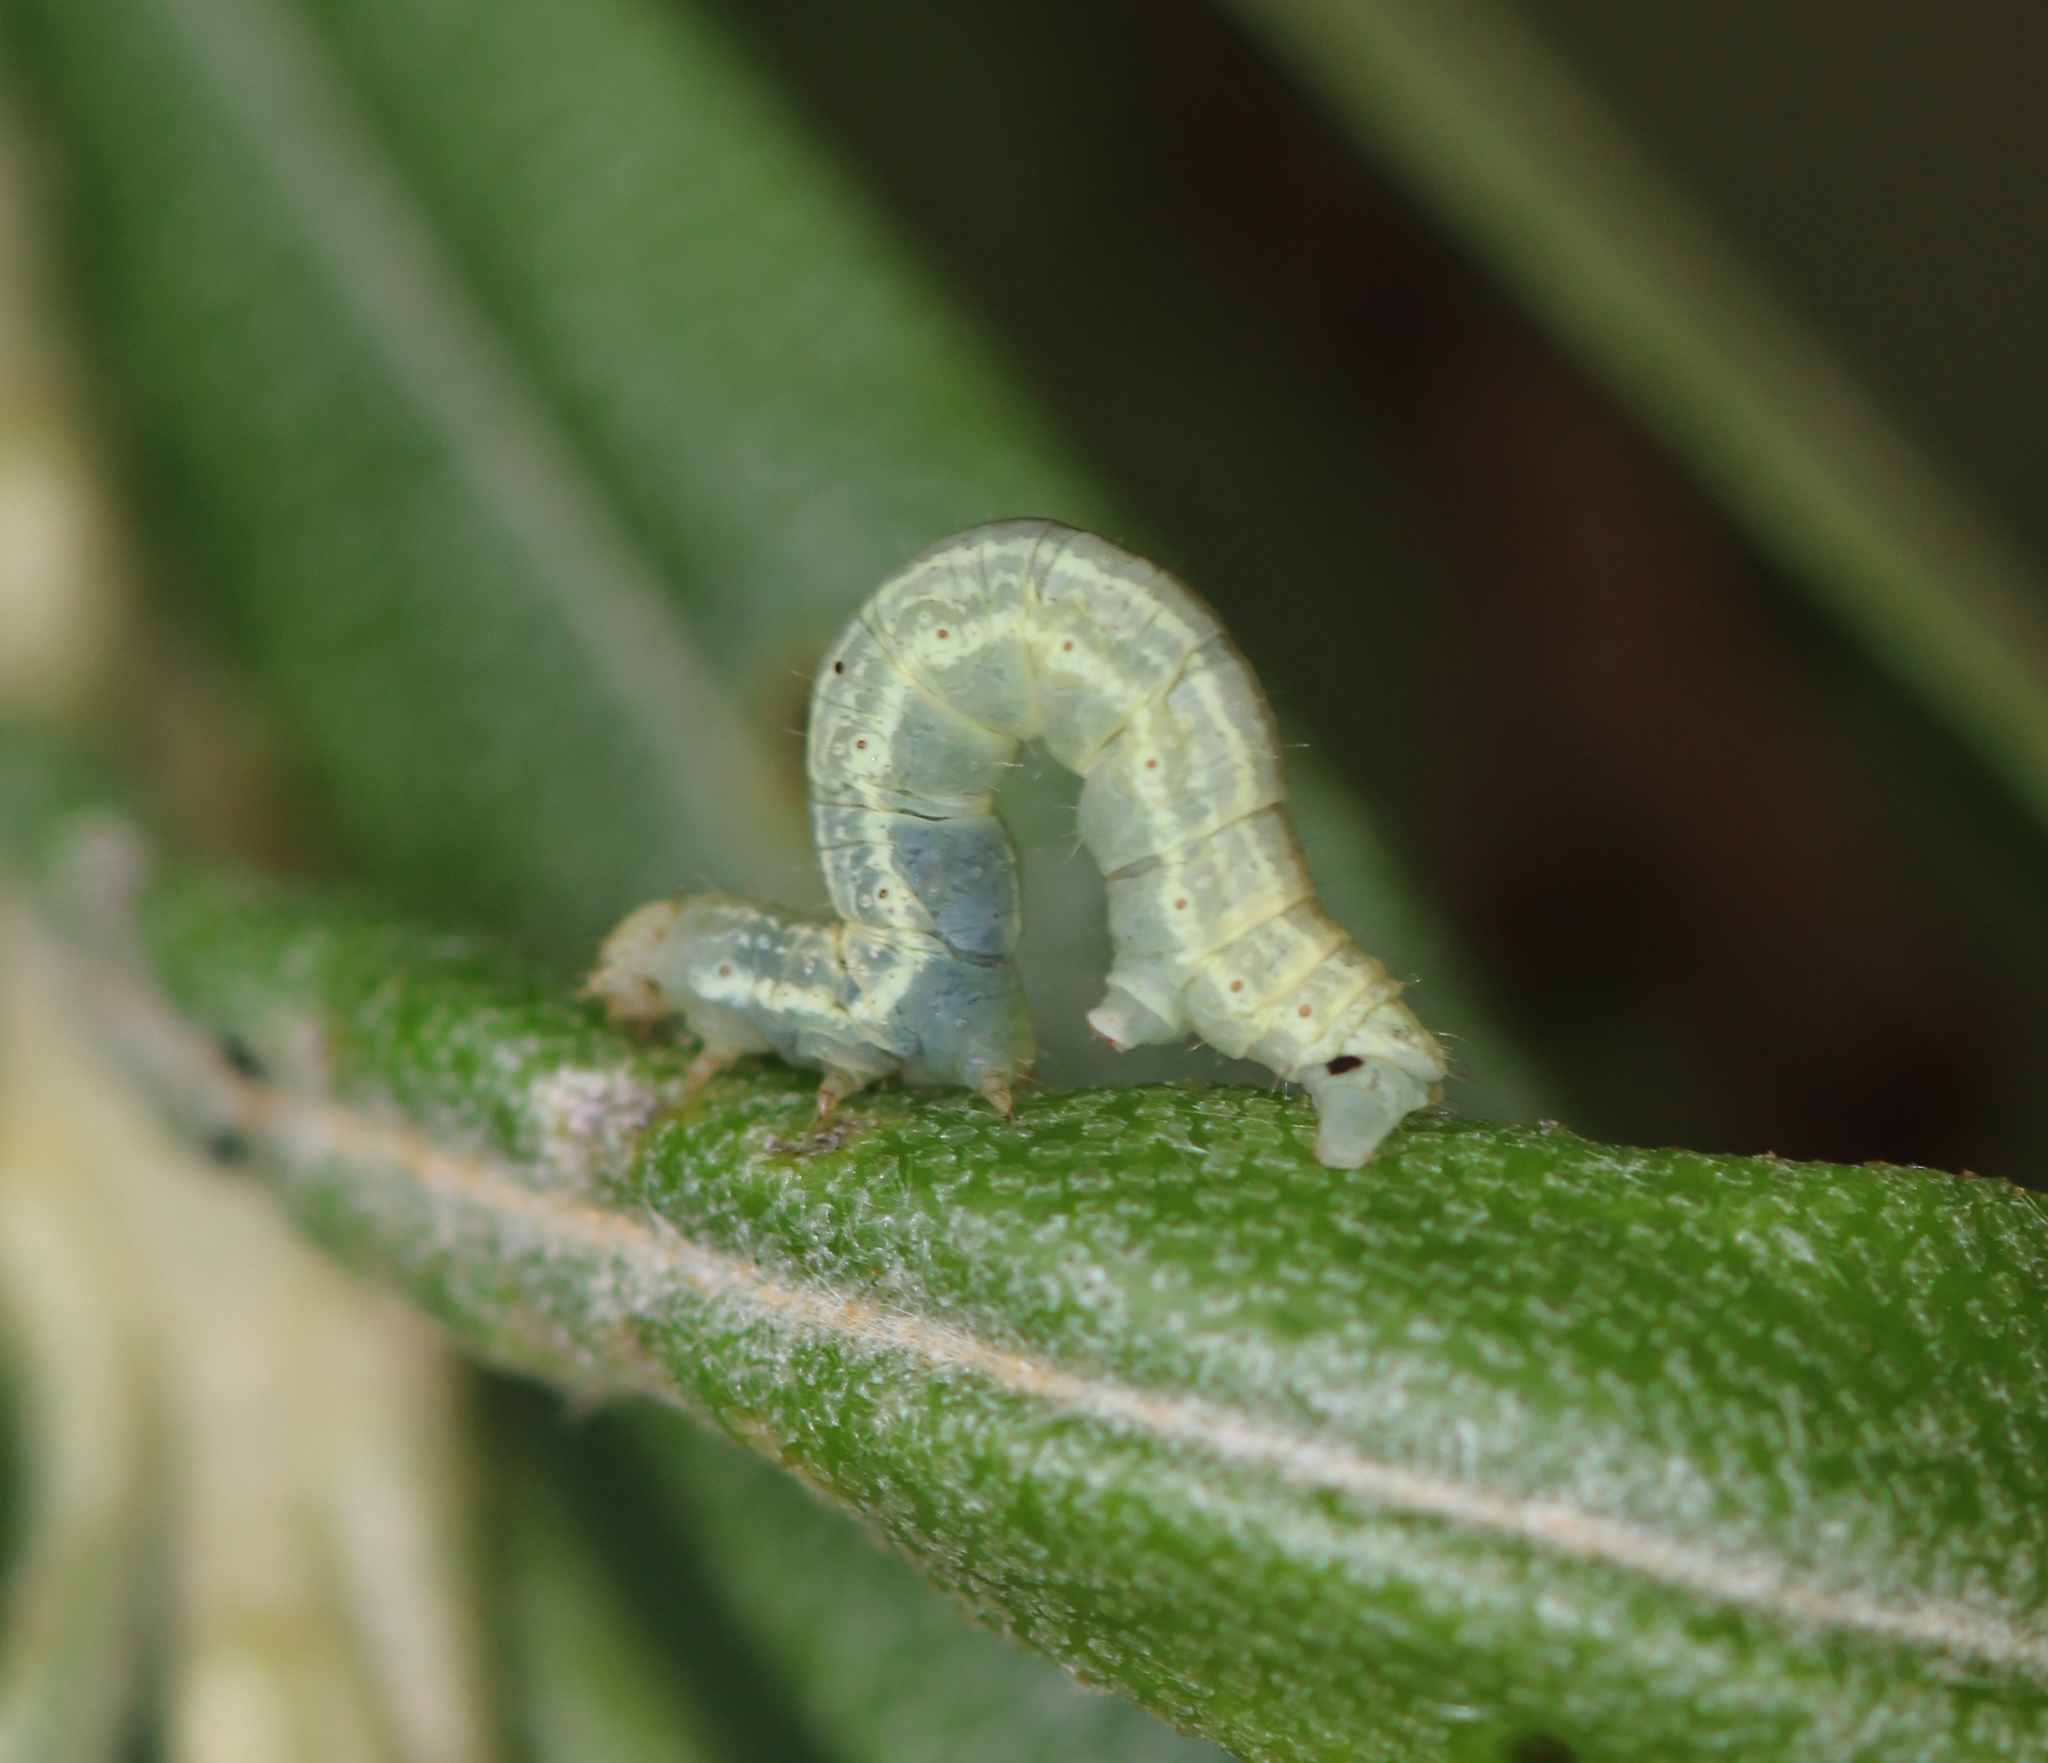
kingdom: Animalia
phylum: Arthropoda
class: Insecta
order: Lepidoptera
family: Geometridae
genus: Operophtera
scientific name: Operophtera brumata
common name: Winter moth
